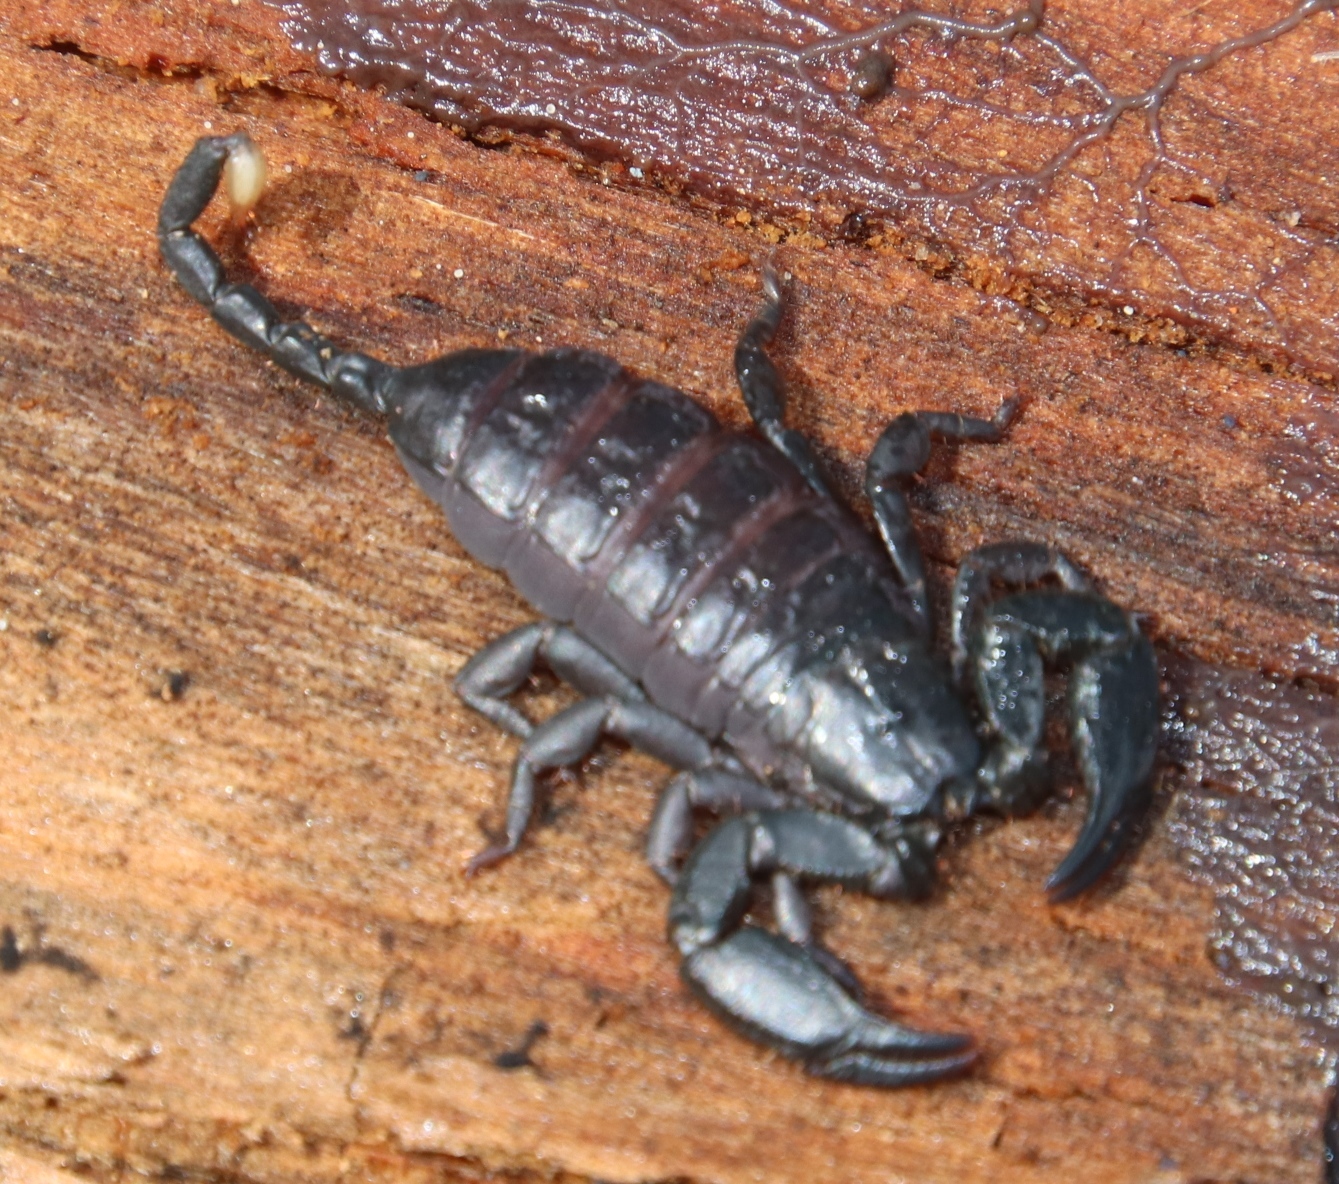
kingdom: Animalia
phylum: Arthropoda
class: Arachnida
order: Scorpiones
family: Hormuridae
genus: Opisthacanthus
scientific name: Opisthacanthus capensis
